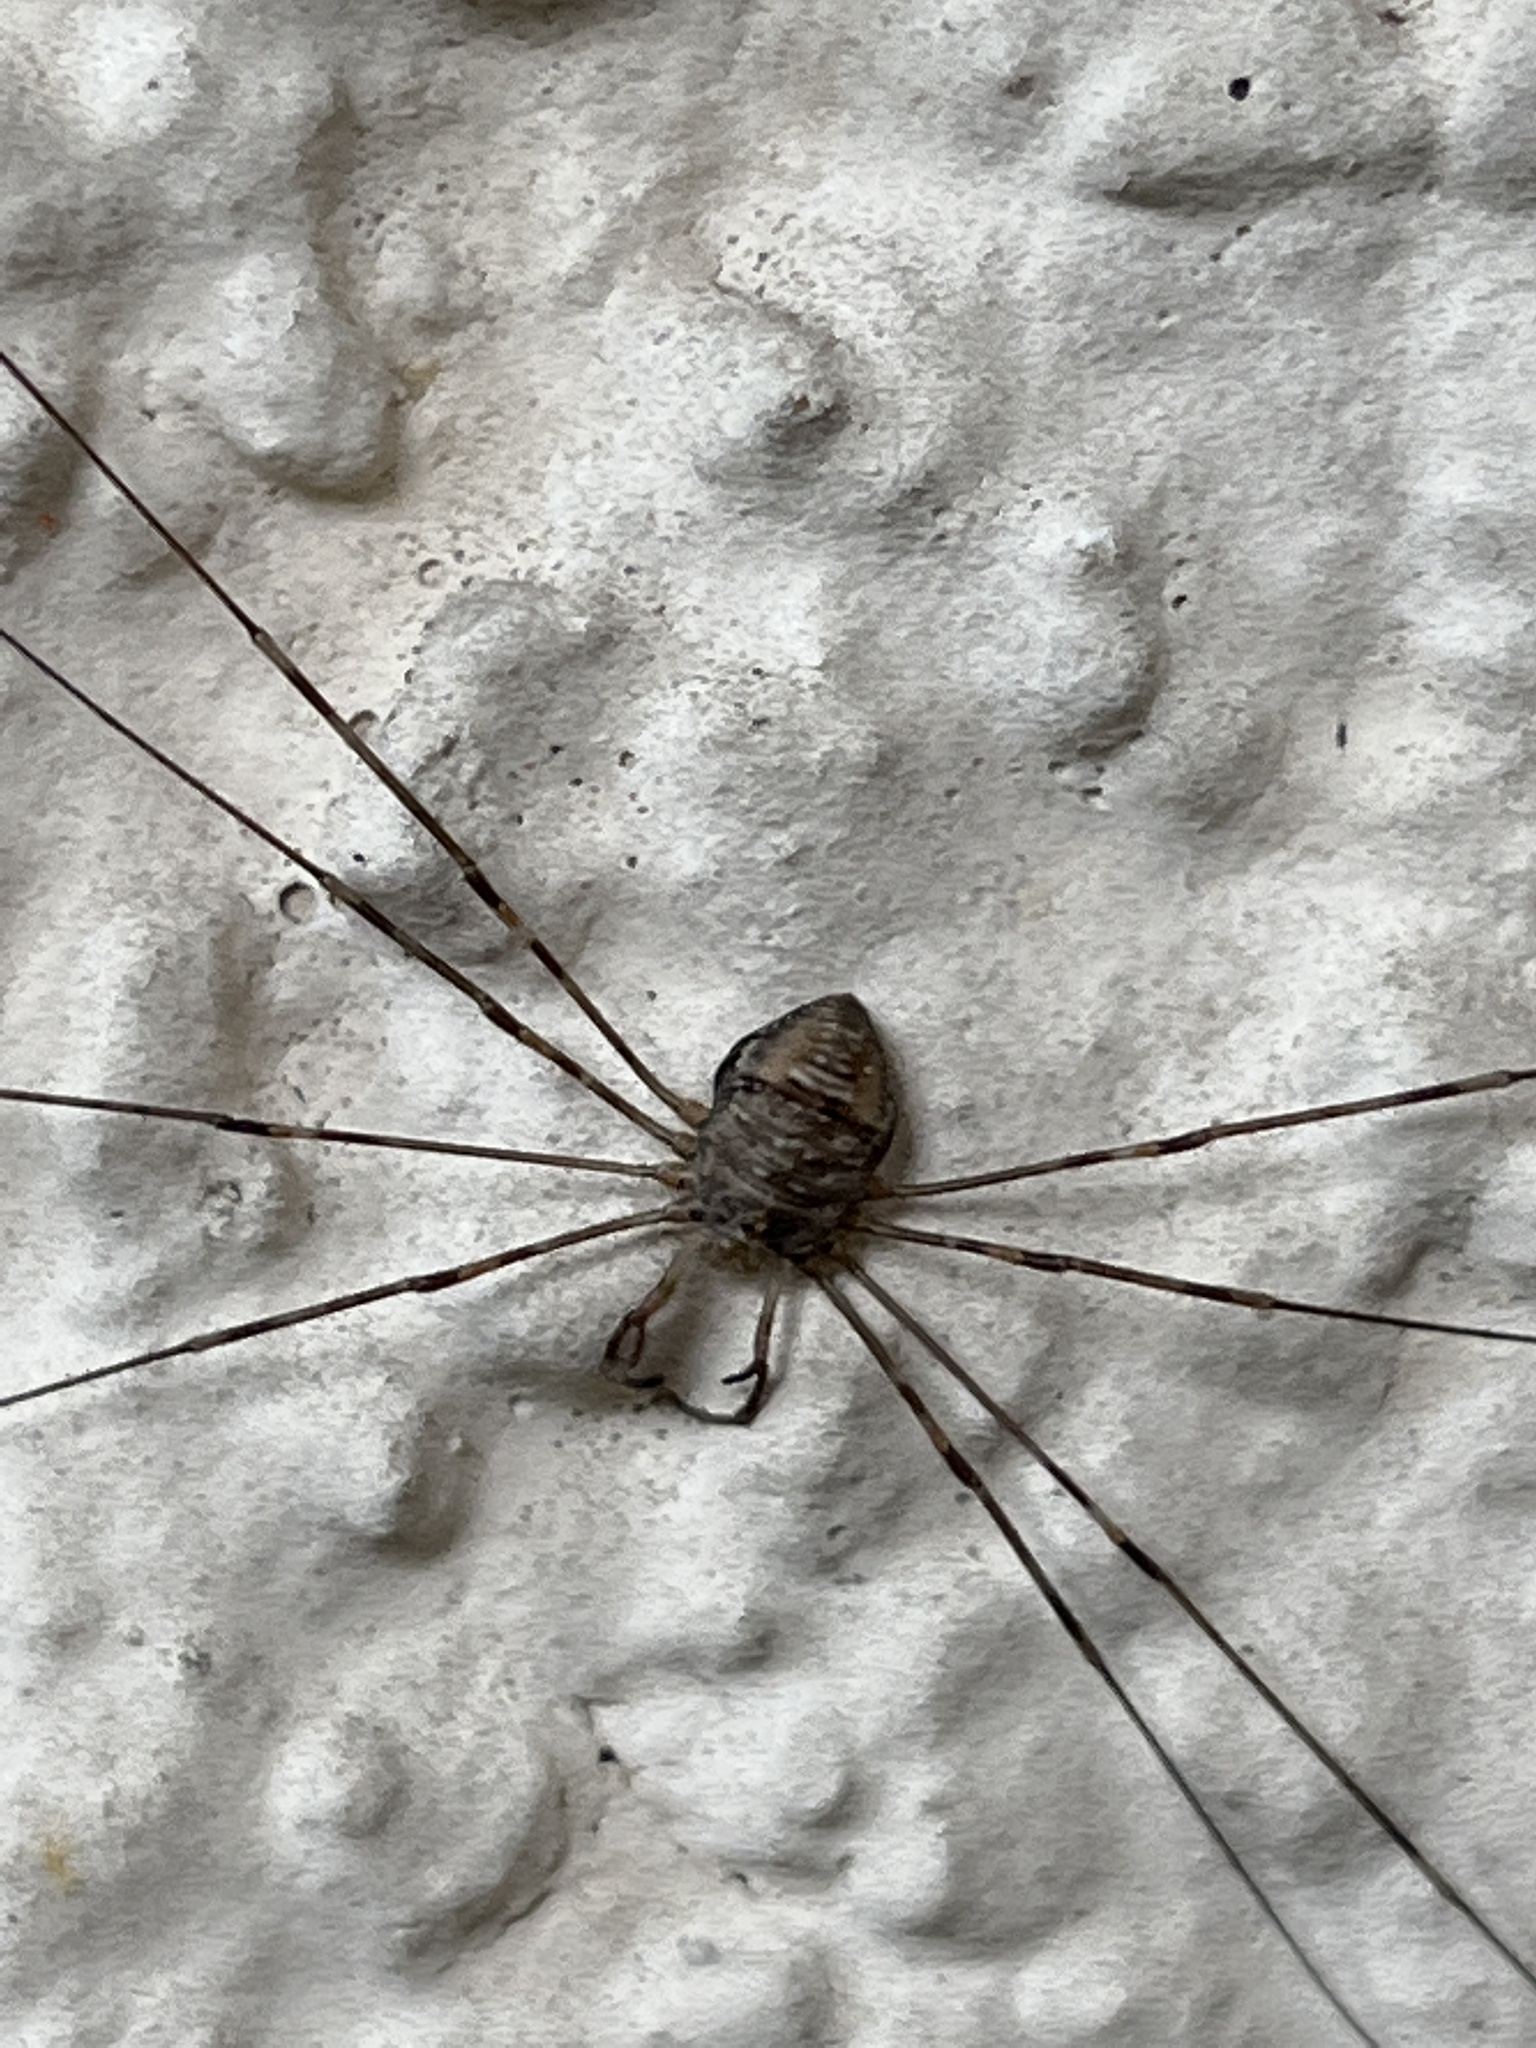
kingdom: Animalia
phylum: Arthropoda
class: Arachnida
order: Opiliones
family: Phalangiidae
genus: Dicranopalpus
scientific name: Dicranopalpus ramosus
